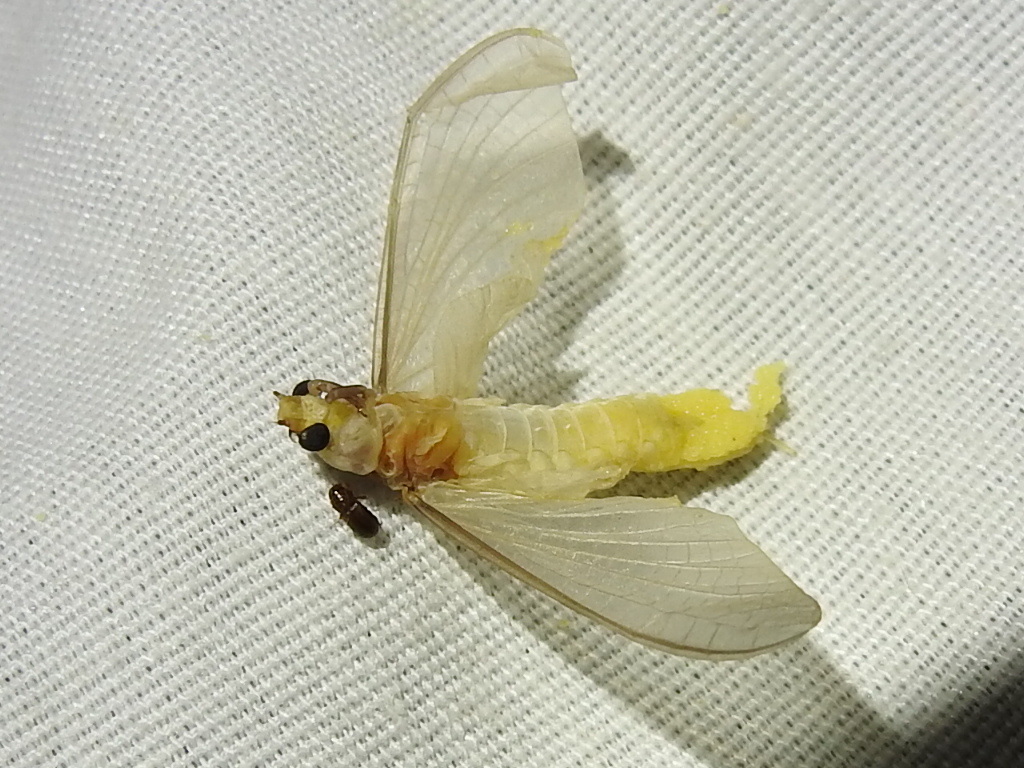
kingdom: Animalia
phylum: Arthropoda
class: Insecta
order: Ephemeroptera
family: Polymitarcyidae
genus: Ephoron
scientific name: Ephoron leukon
